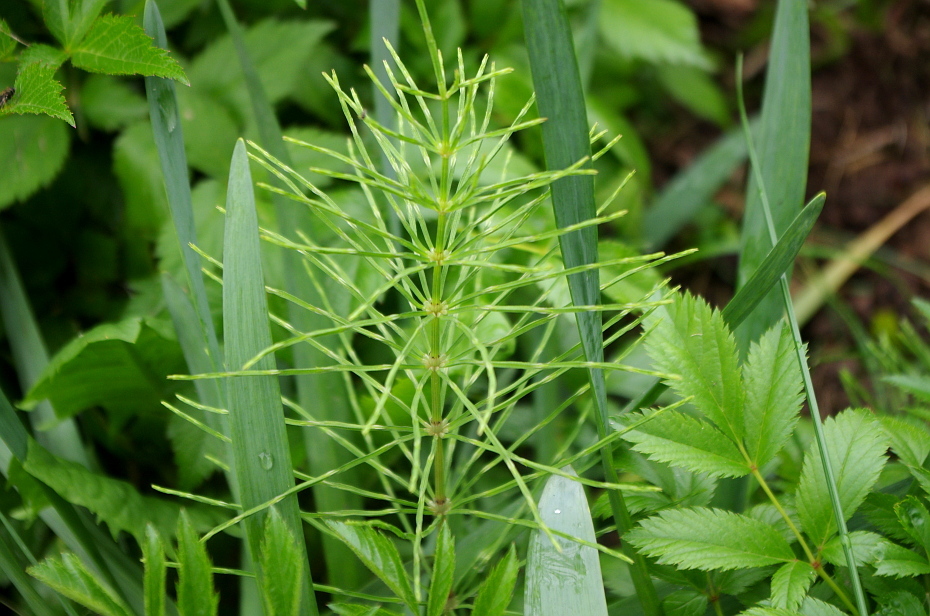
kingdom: Plantae
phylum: Tracheophyta
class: Polypodiopsida
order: Equisetales
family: Equisetaceae
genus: Equisetum
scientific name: Equisetum arvense
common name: Field horsetail
